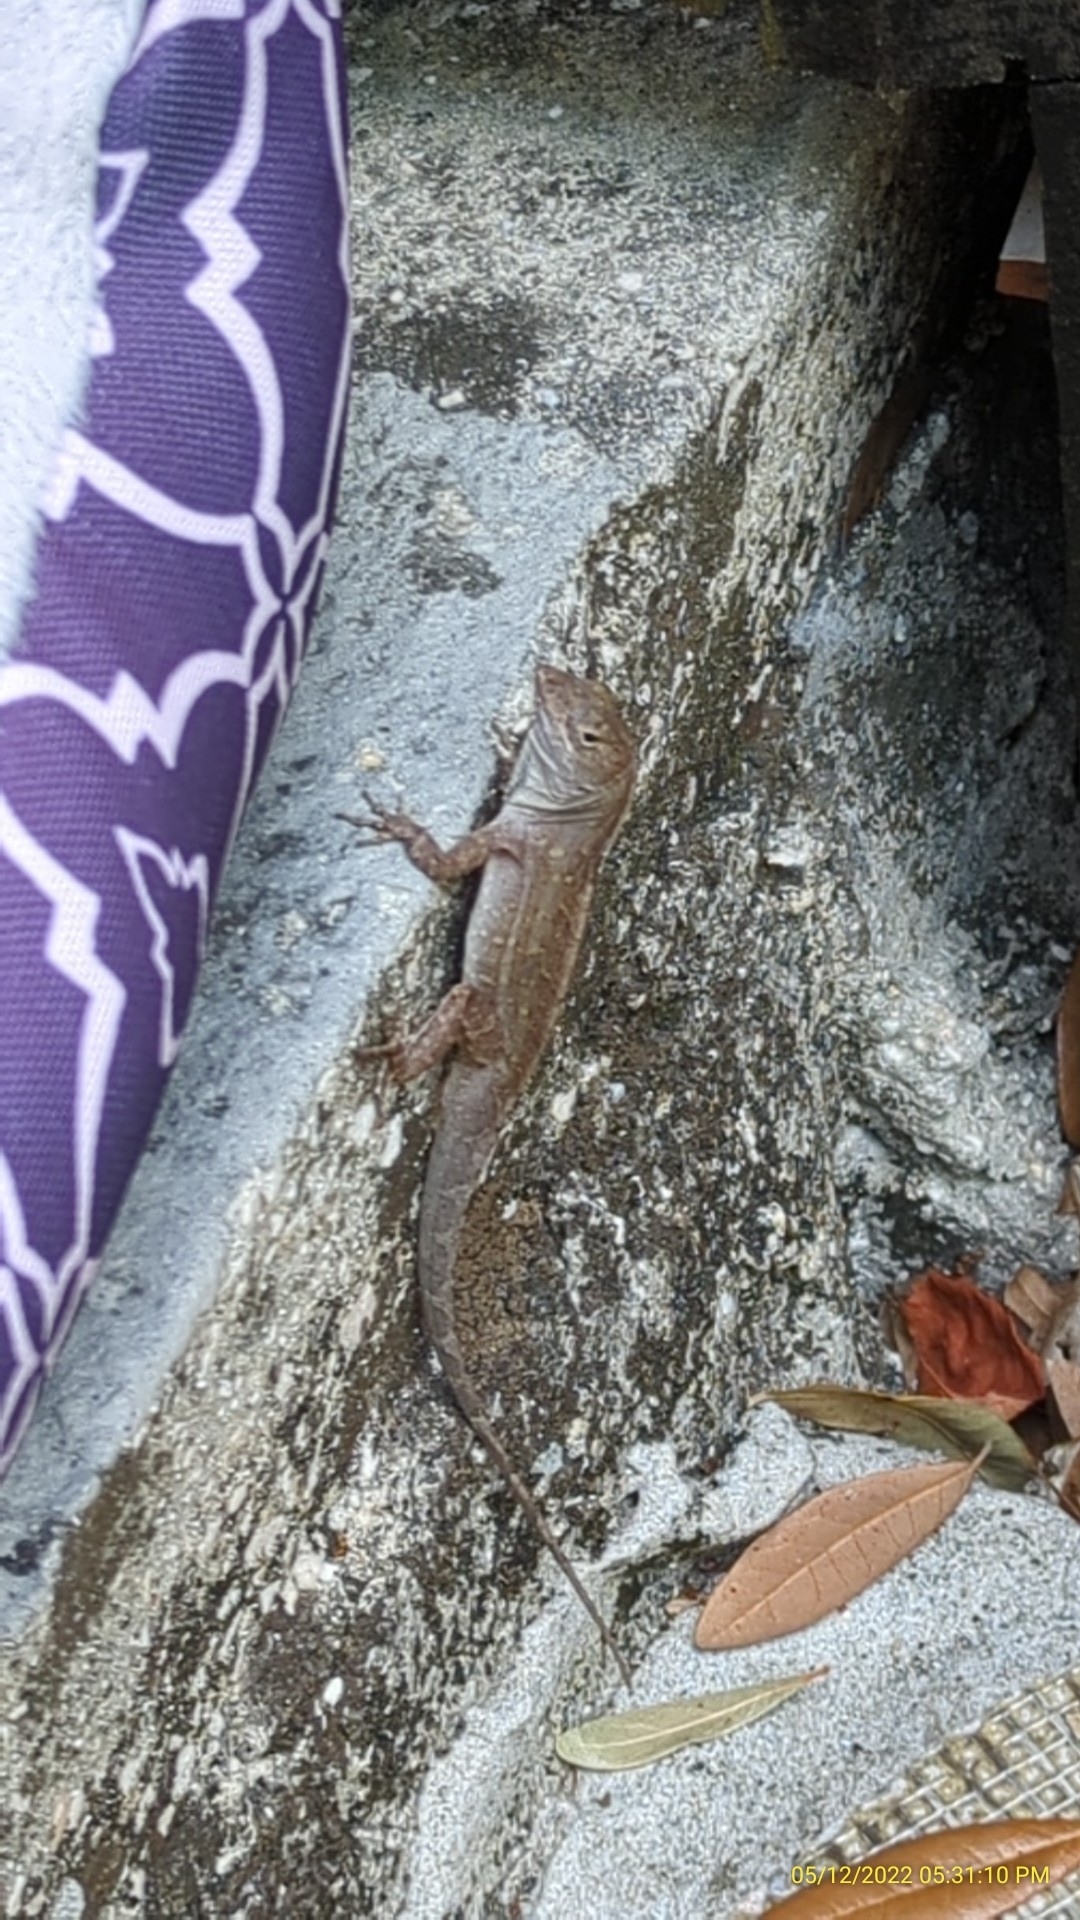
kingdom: Animalia
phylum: Chordata
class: Squamata
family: Dactyloidae
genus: Anolis
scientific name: Anolis sagrei
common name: Brown anole
